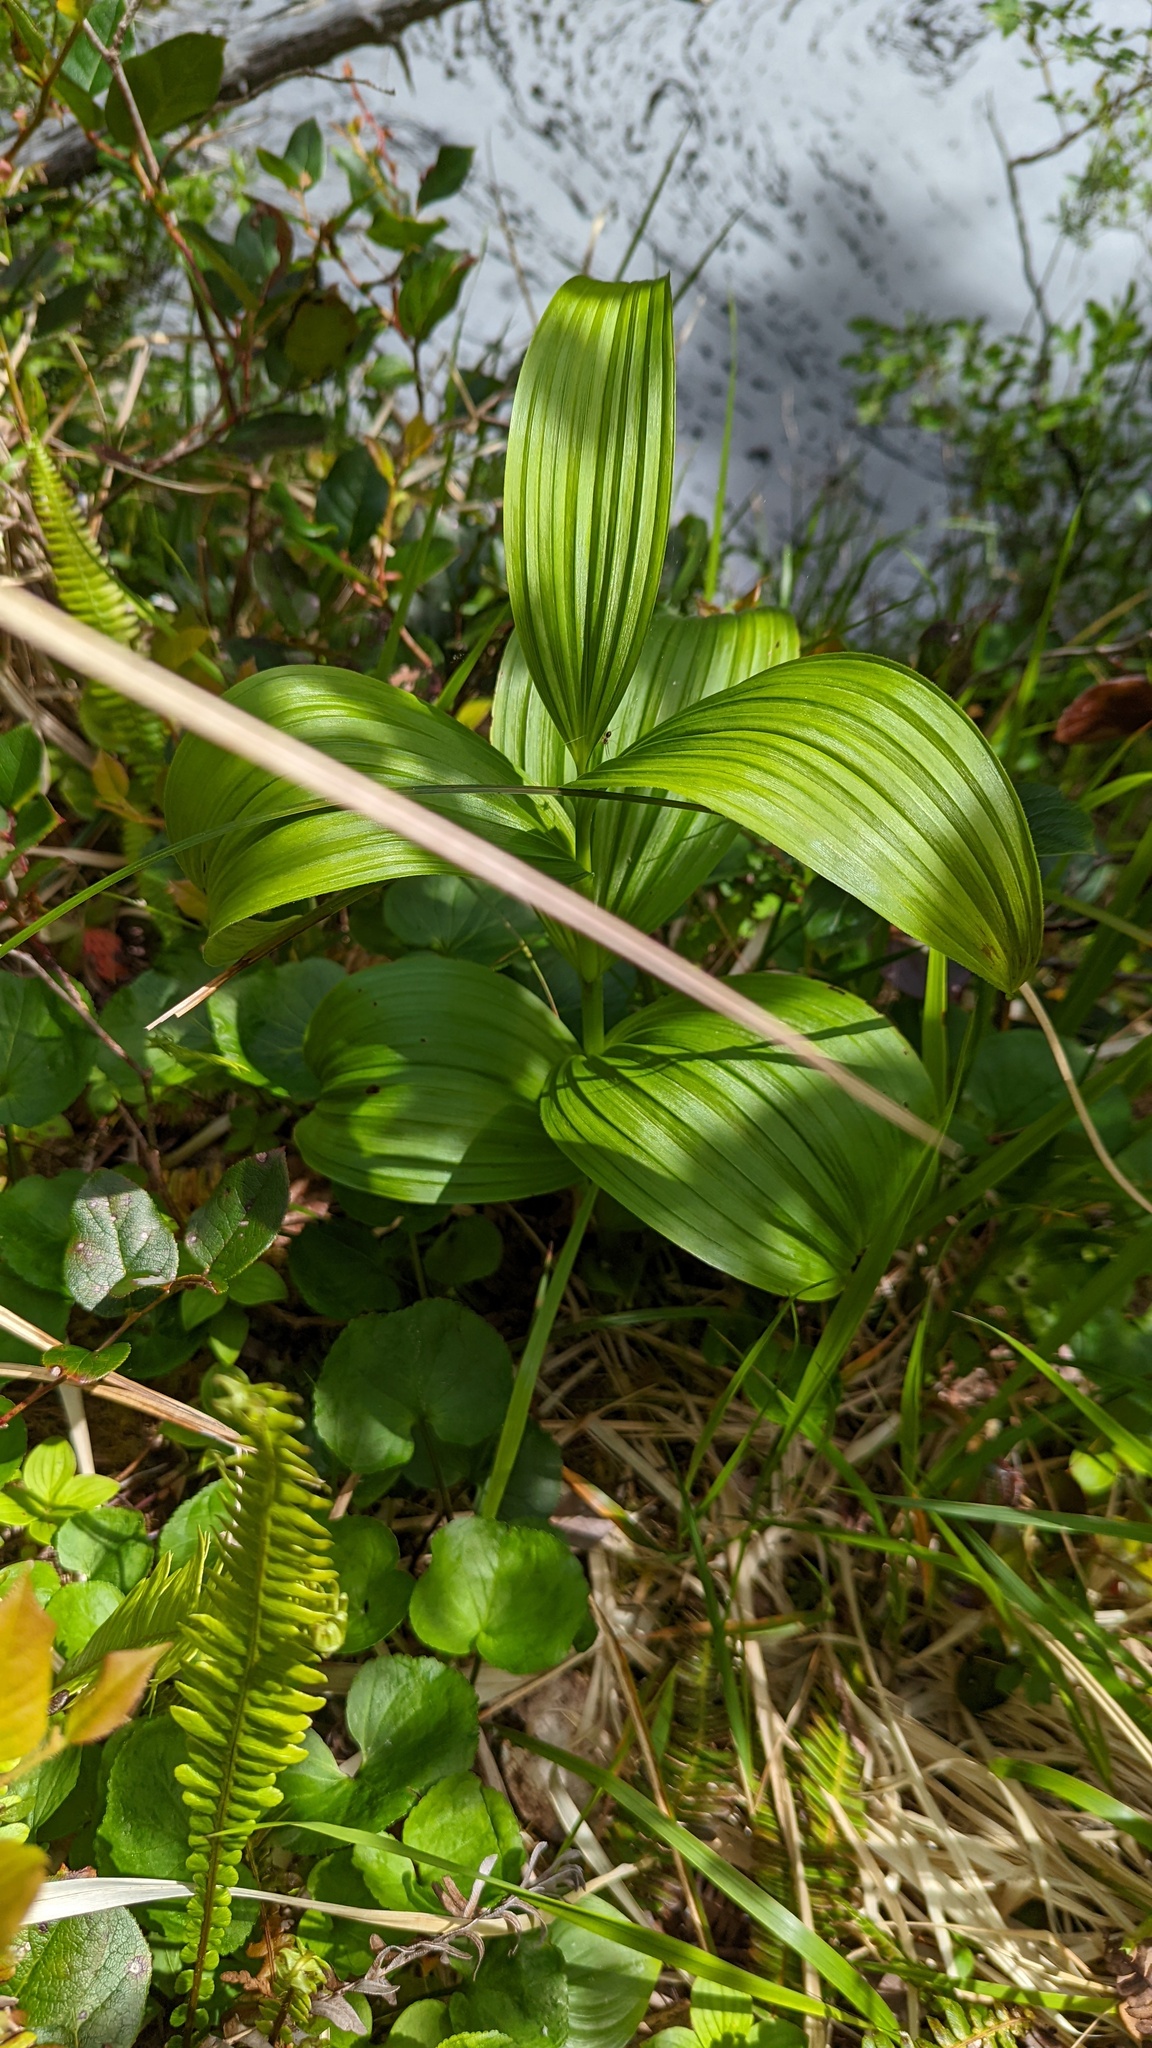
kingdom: Plantae
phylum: Tracheophyta
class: Liliopsida
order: Liliales
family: Melanthiaceae
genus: Veratrum
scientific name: Veratrum viride
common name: American false hellebore
